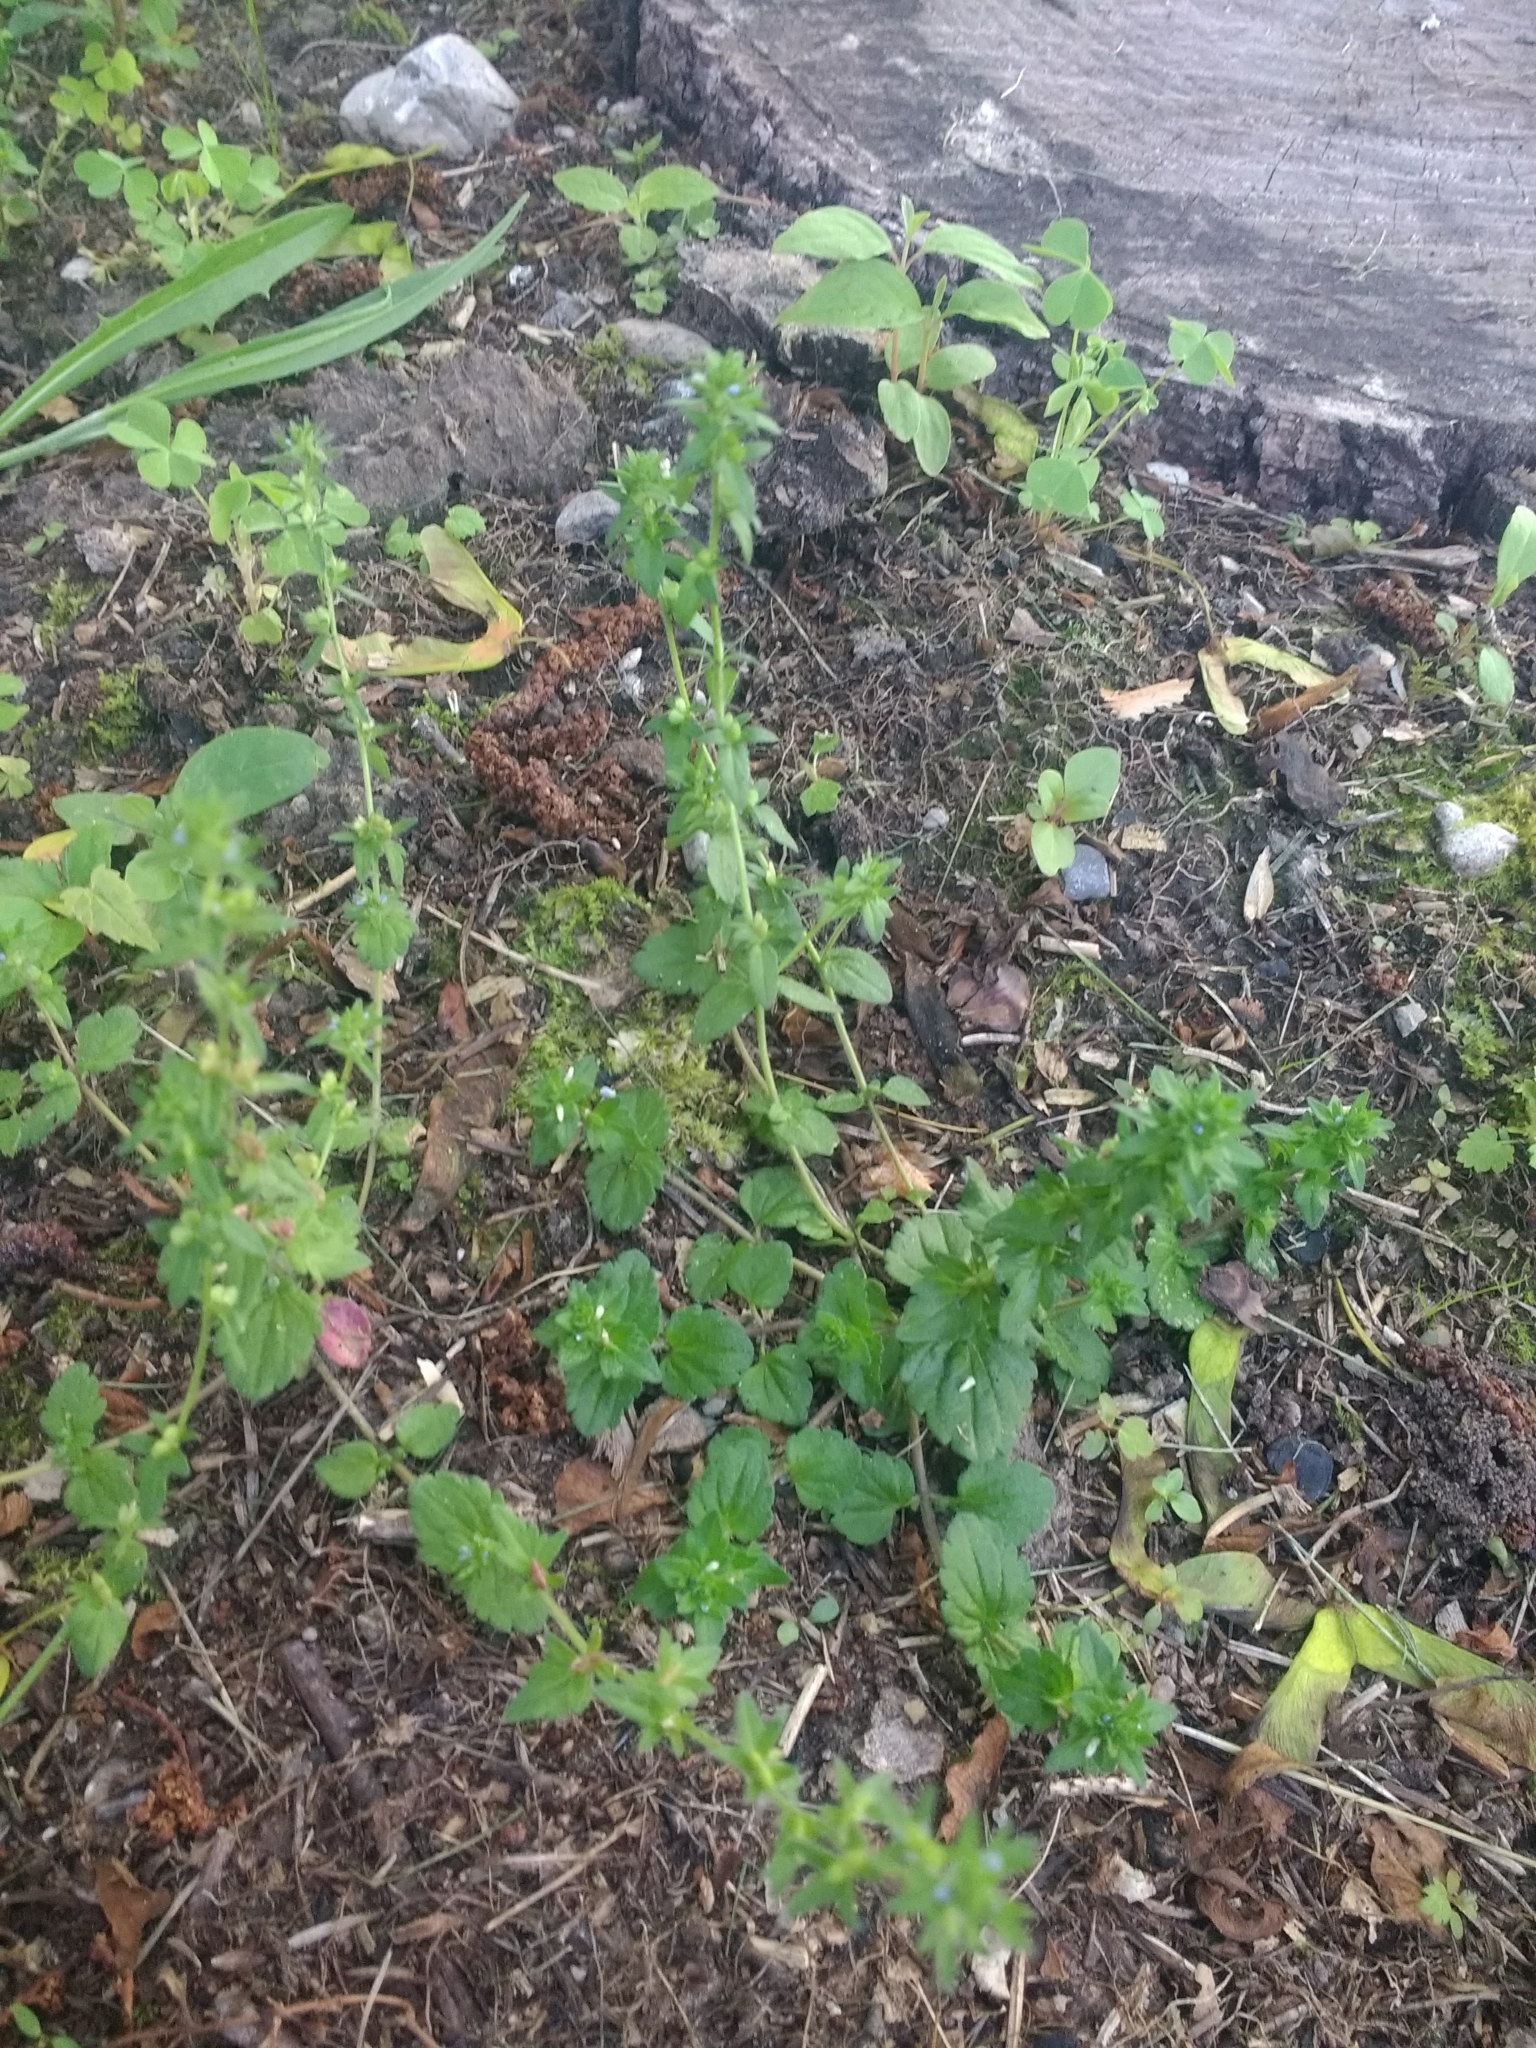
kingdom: Plantae
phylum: Tracheophyta
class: Magnoliopsida
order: Lamiales
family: Plantaginaceae
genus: Veronica
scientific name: Veronica arvensis
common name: Corn speedwell
